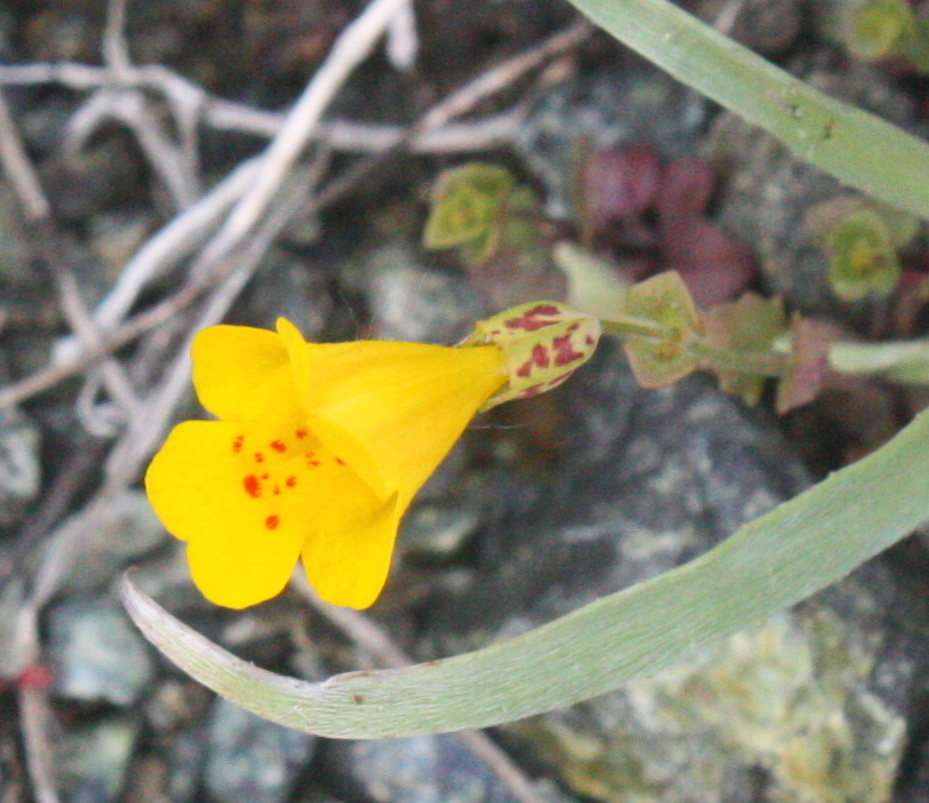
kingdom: Plantae
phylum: Tracheophyta
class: Magnoliopsida
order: Lamiales
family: Phrymaceae
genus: Erythranthe
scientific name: Erythranthe guttata
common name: Monkeyflower
